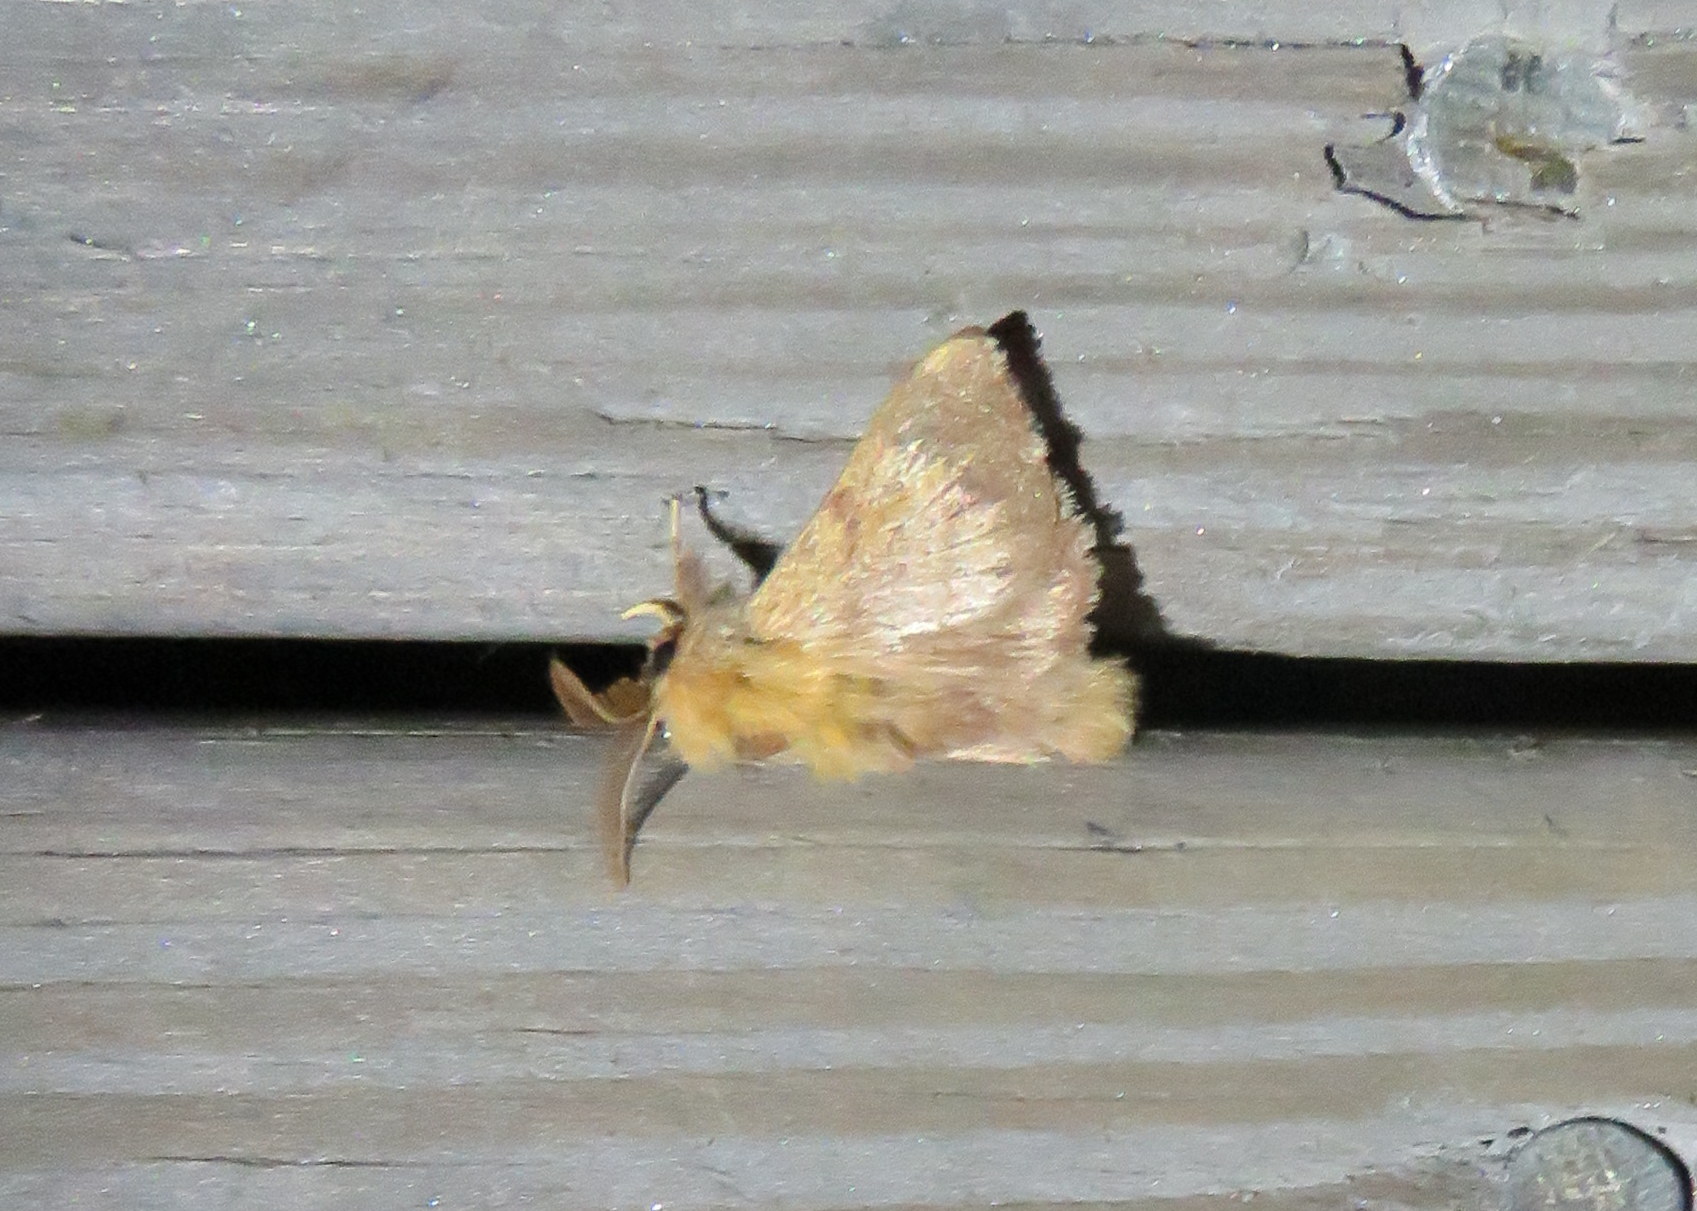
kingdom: Animalia
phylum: Arthropoda
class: Insecta
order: Lepidoptera
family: Lasiocampidae
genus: Malacosoma
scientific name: Malacosoma disstria
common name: Forest tent caterpillar
